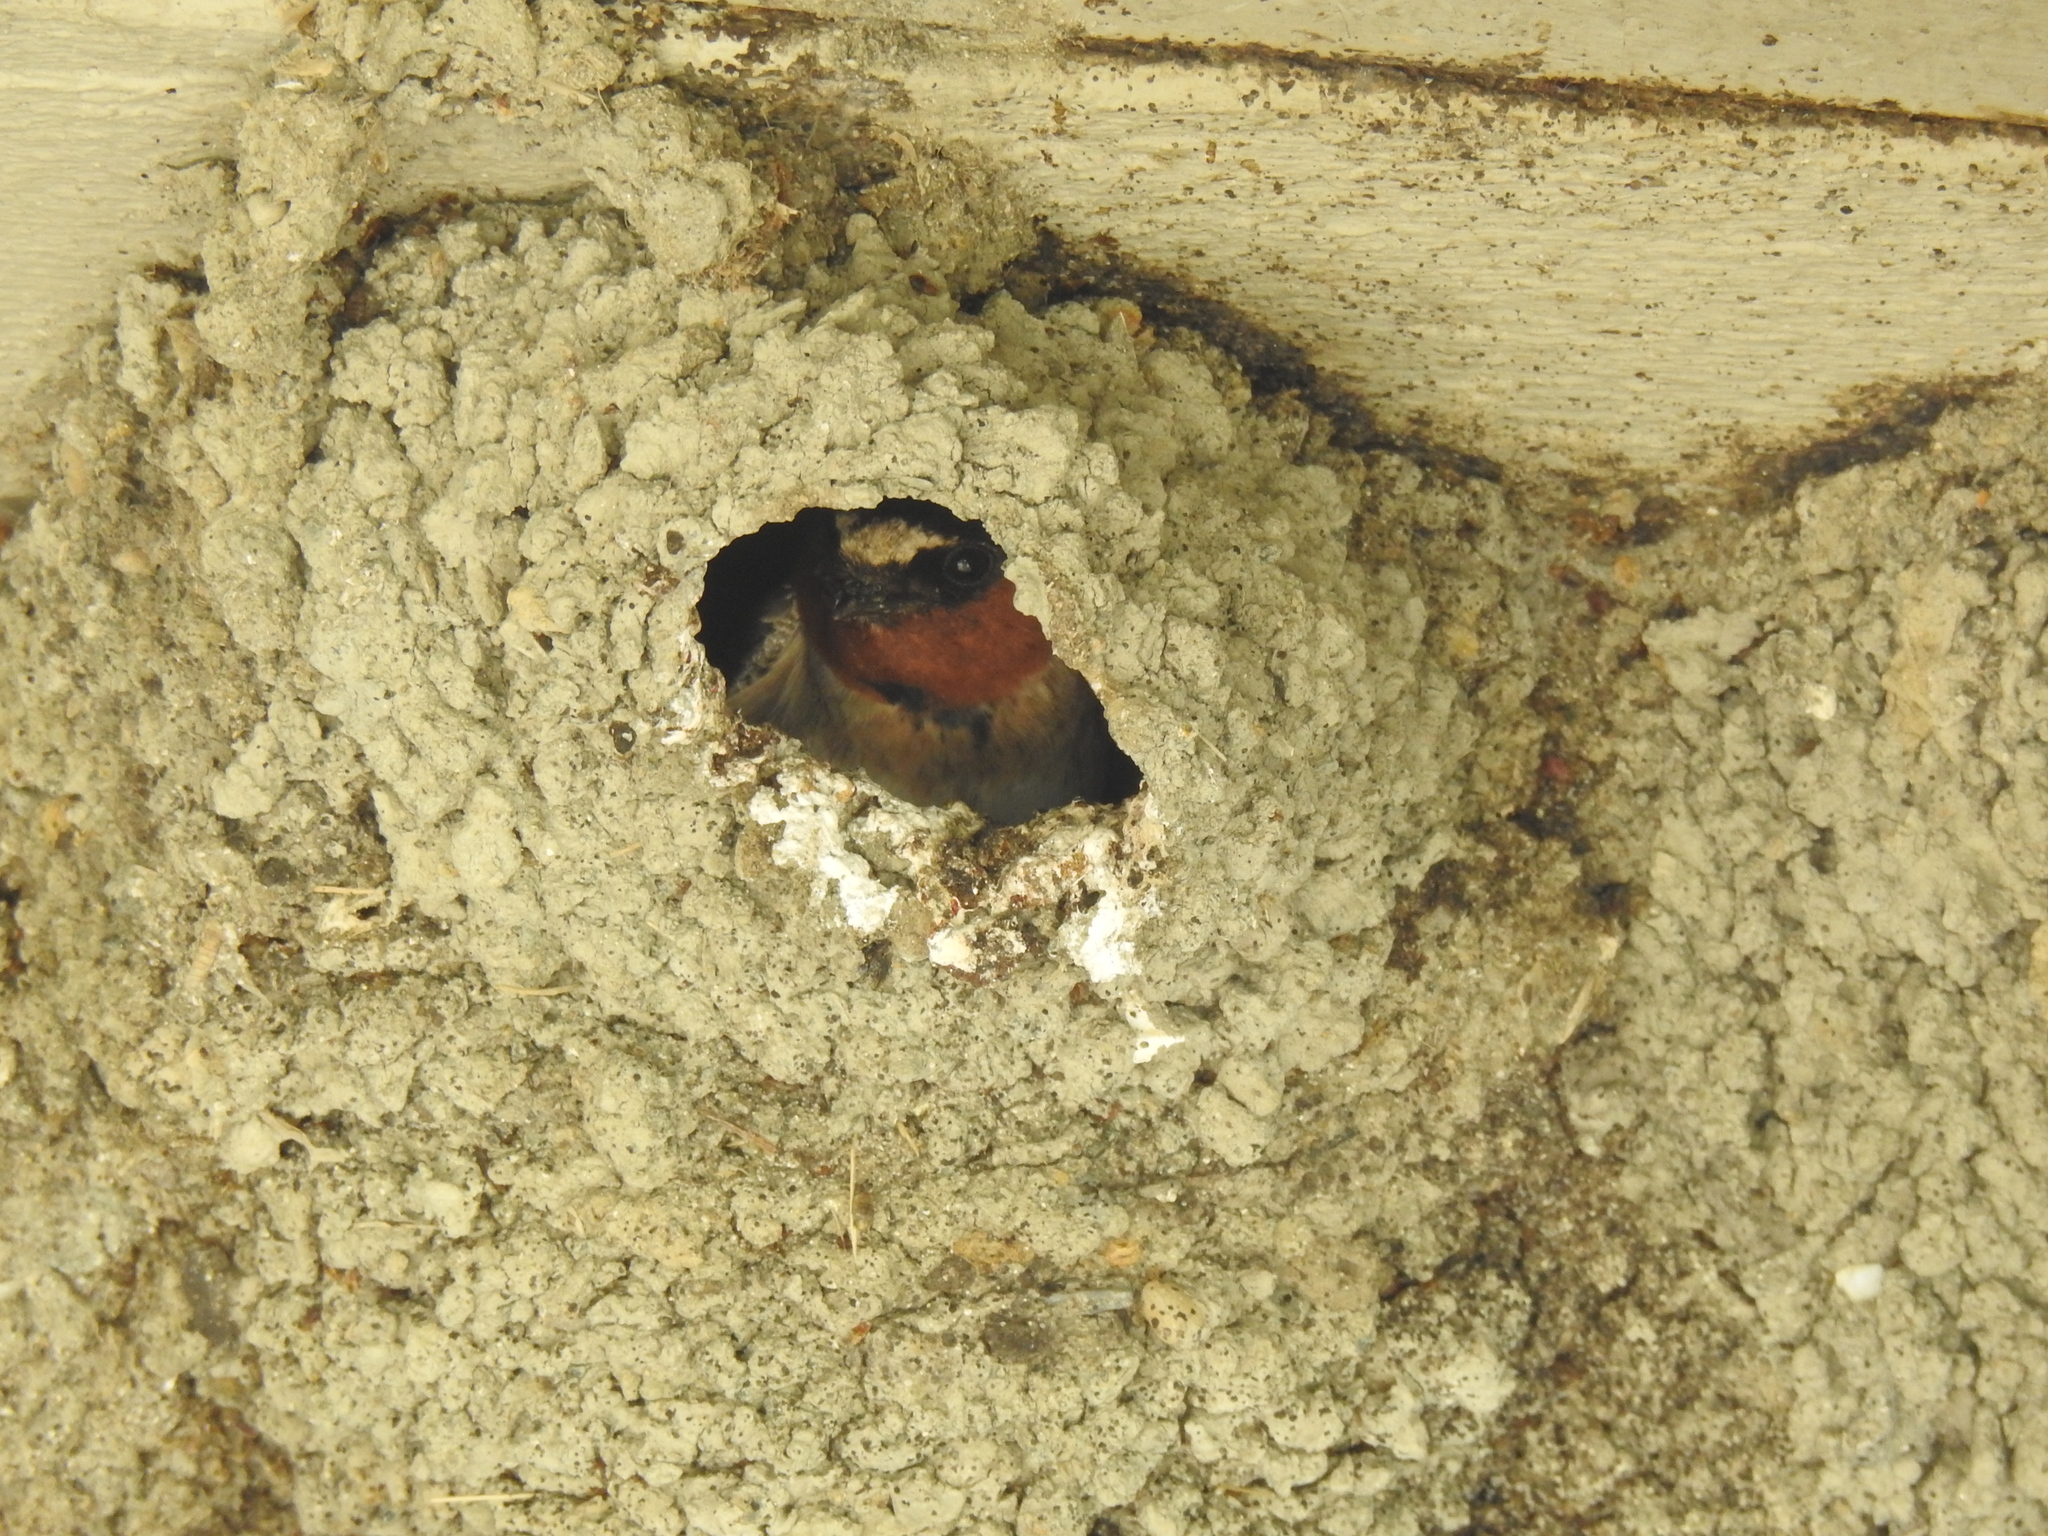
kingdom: Animalia
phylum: Chordata
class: Aves
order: Passeriformes
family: Hirundinidae
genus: Petrochelidon
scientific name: Petrochelidon pyrrhonota
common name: American cliff swallow
